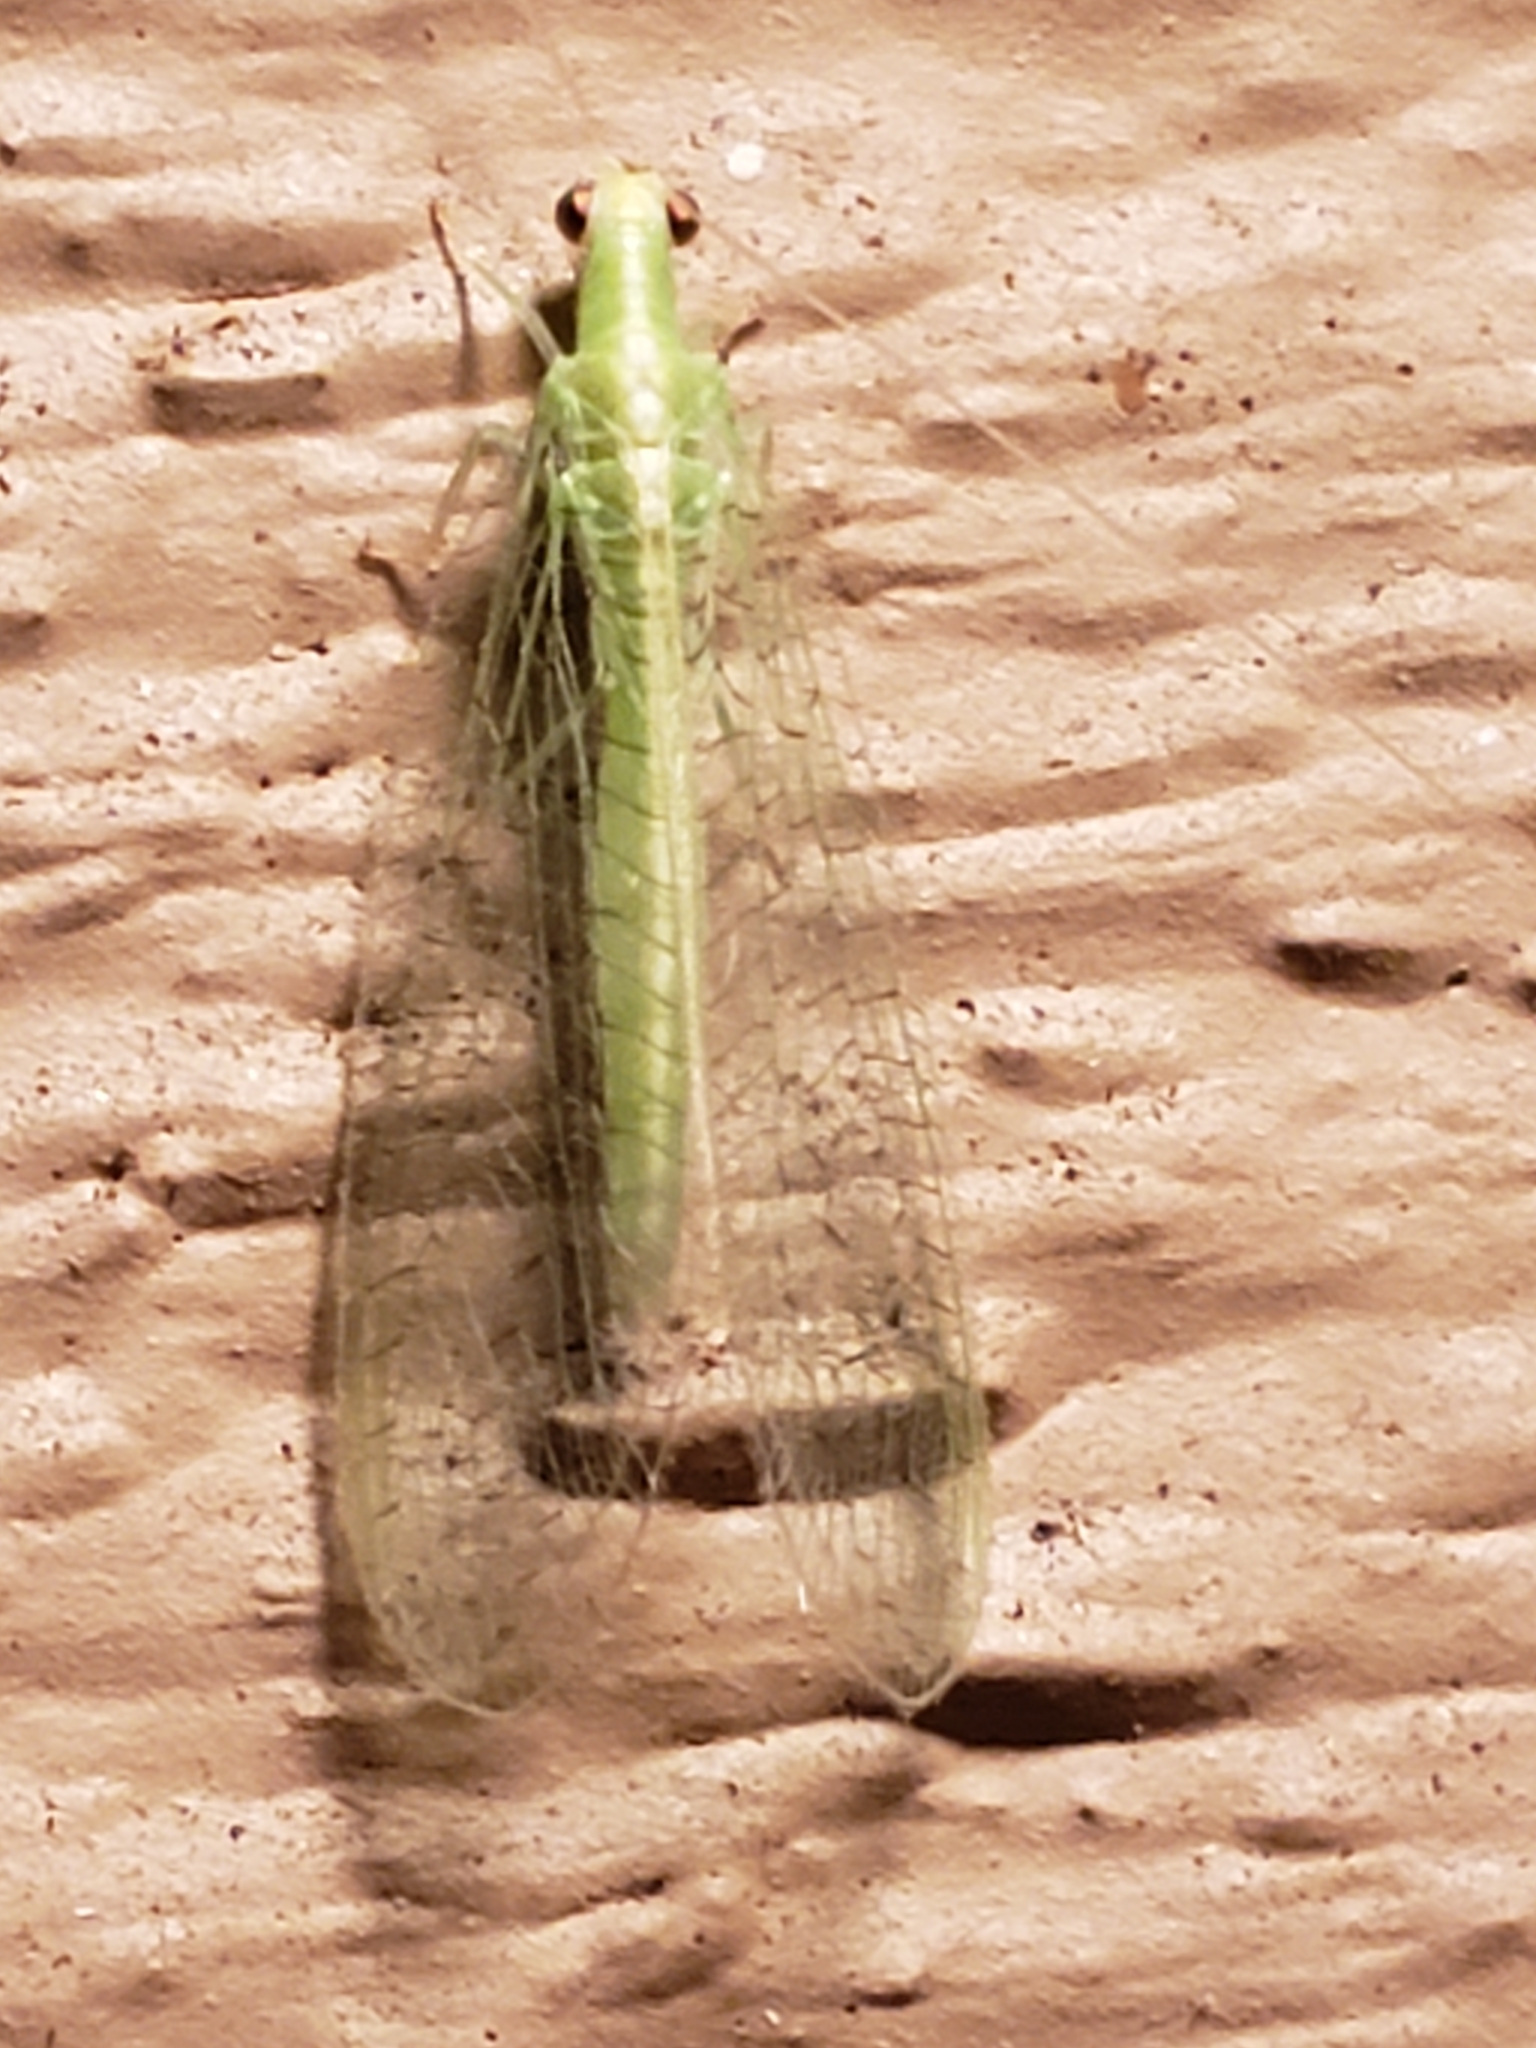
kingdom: Animalia
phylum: Arthropoda
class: Insecta
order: Neuroptera
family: Chrysopidae
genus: Chrysoperla
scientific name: Chrysoperla
